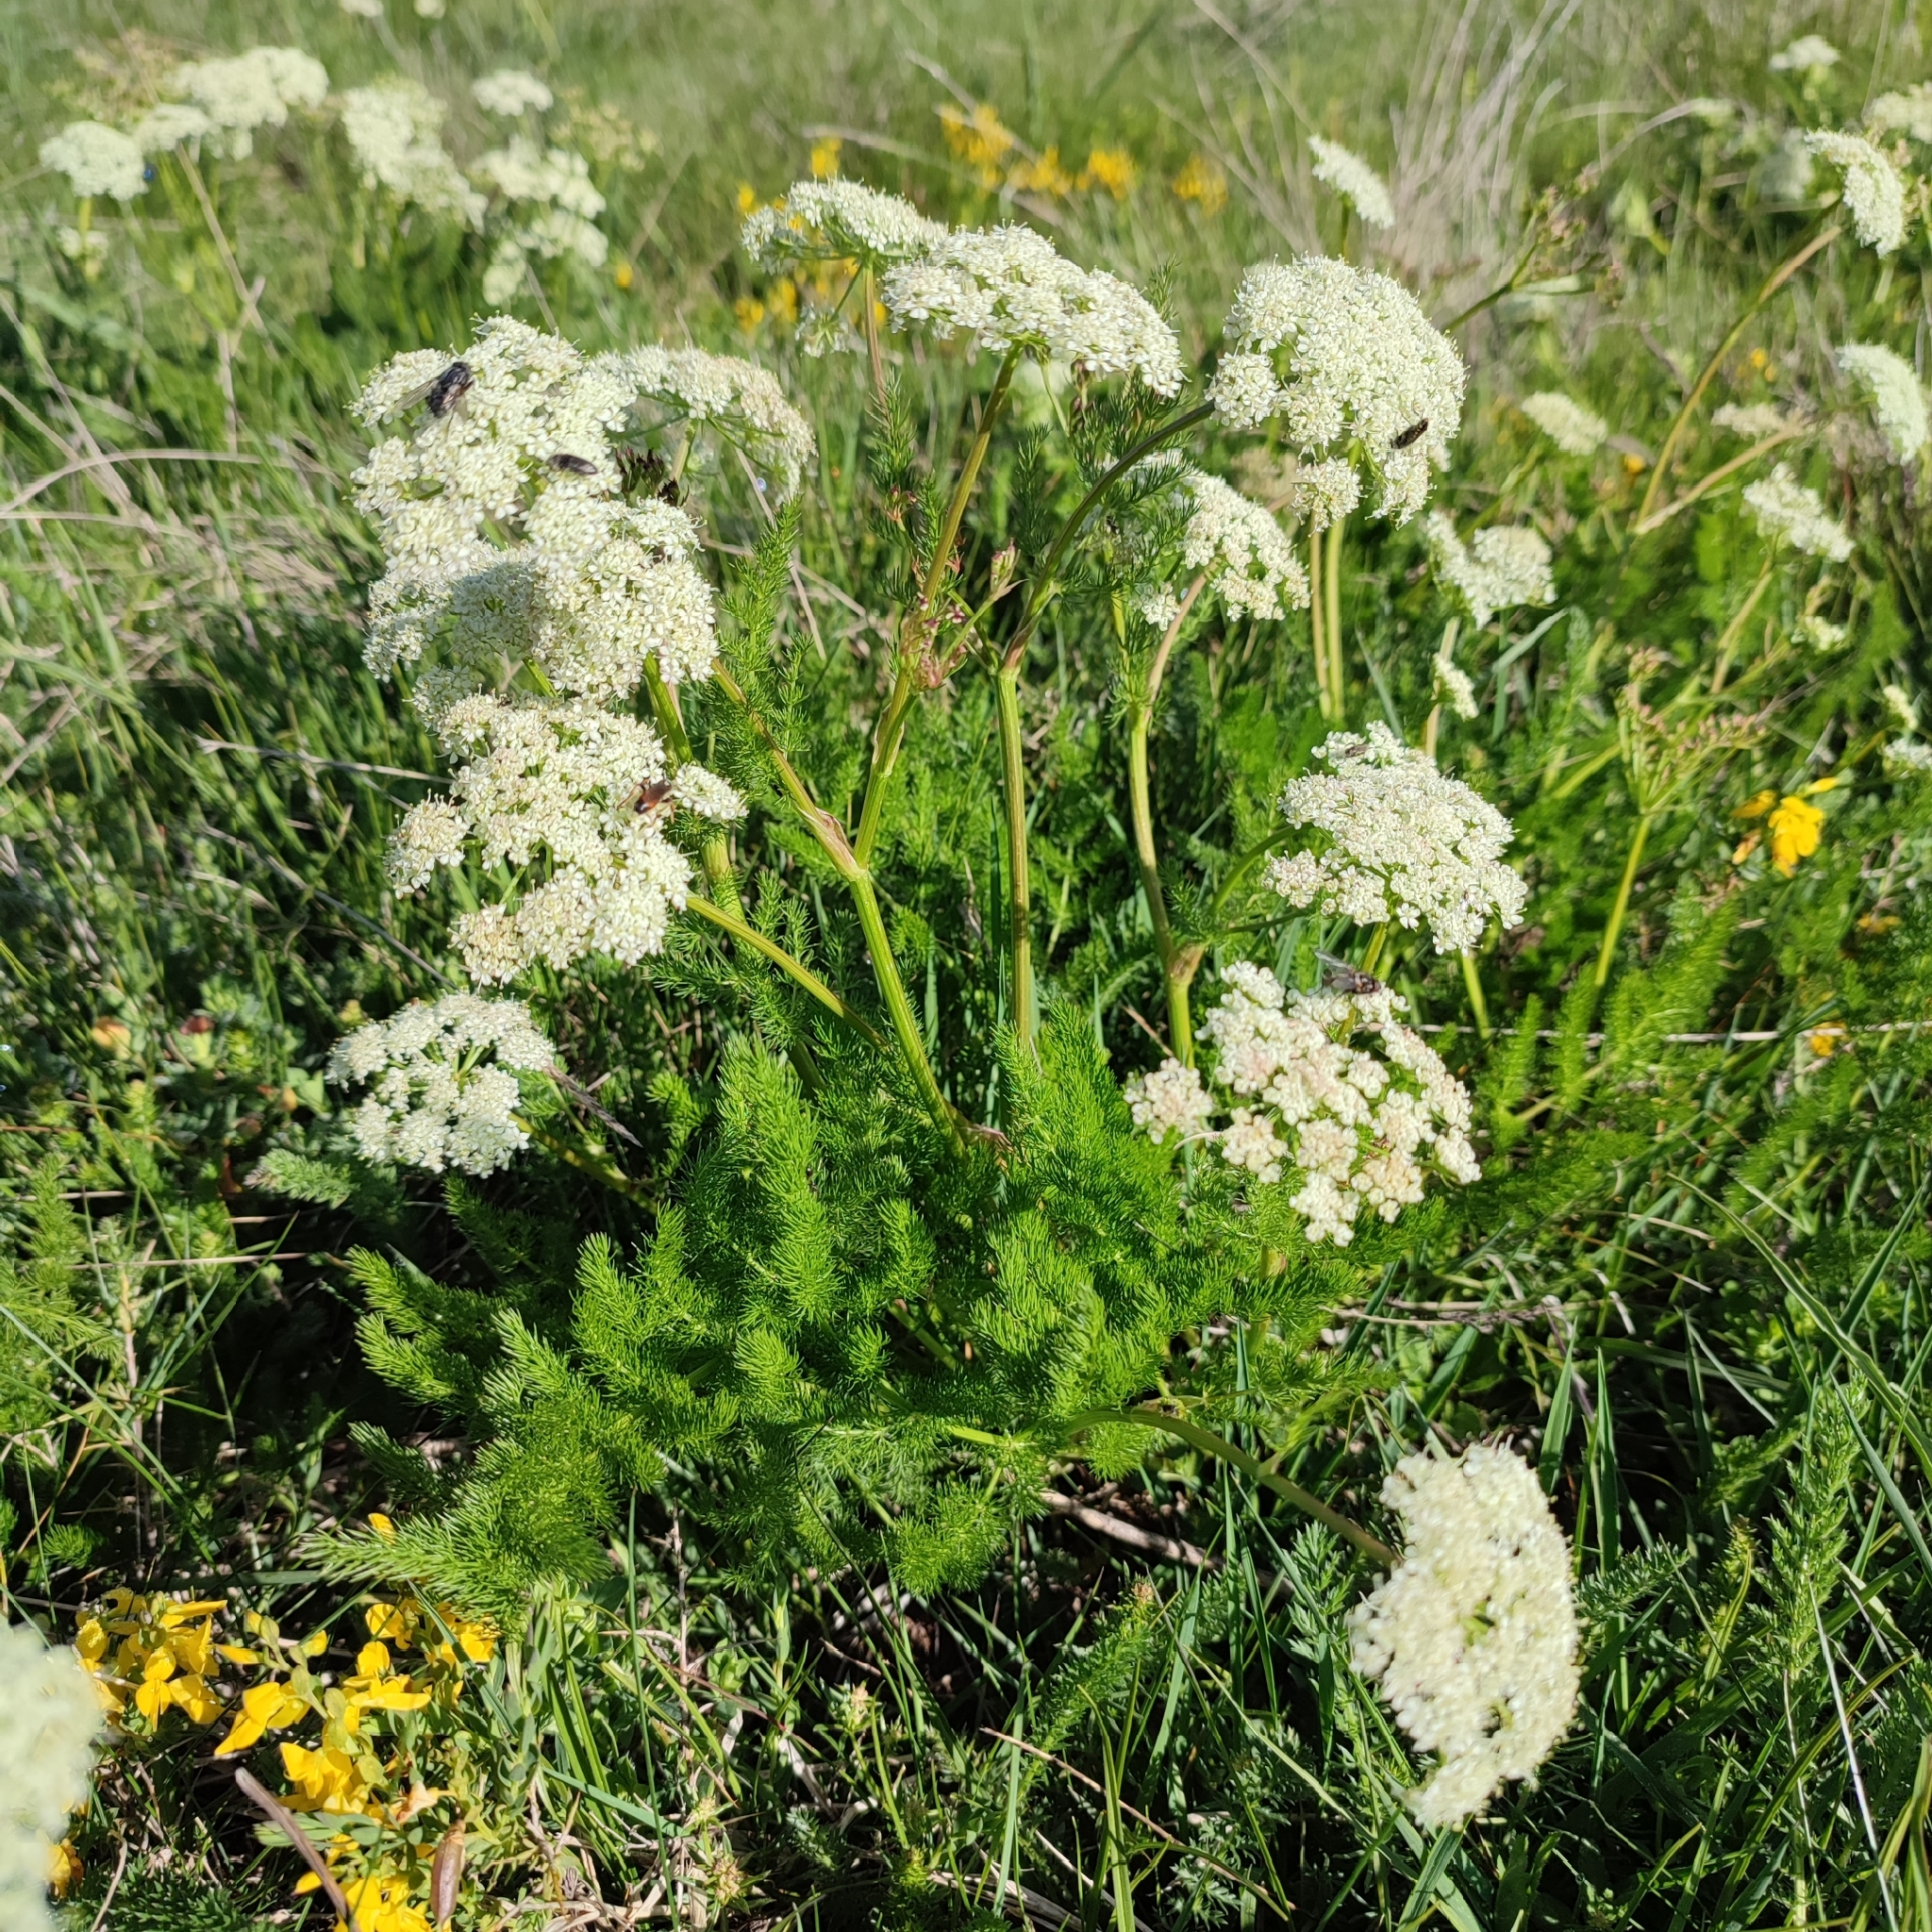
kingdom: Plantae
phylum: Tracheophyta
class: Magnoliopsida
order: Apiales
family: Apiaceae
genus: Meum
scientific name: Meum athamanticum
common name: Spignel
